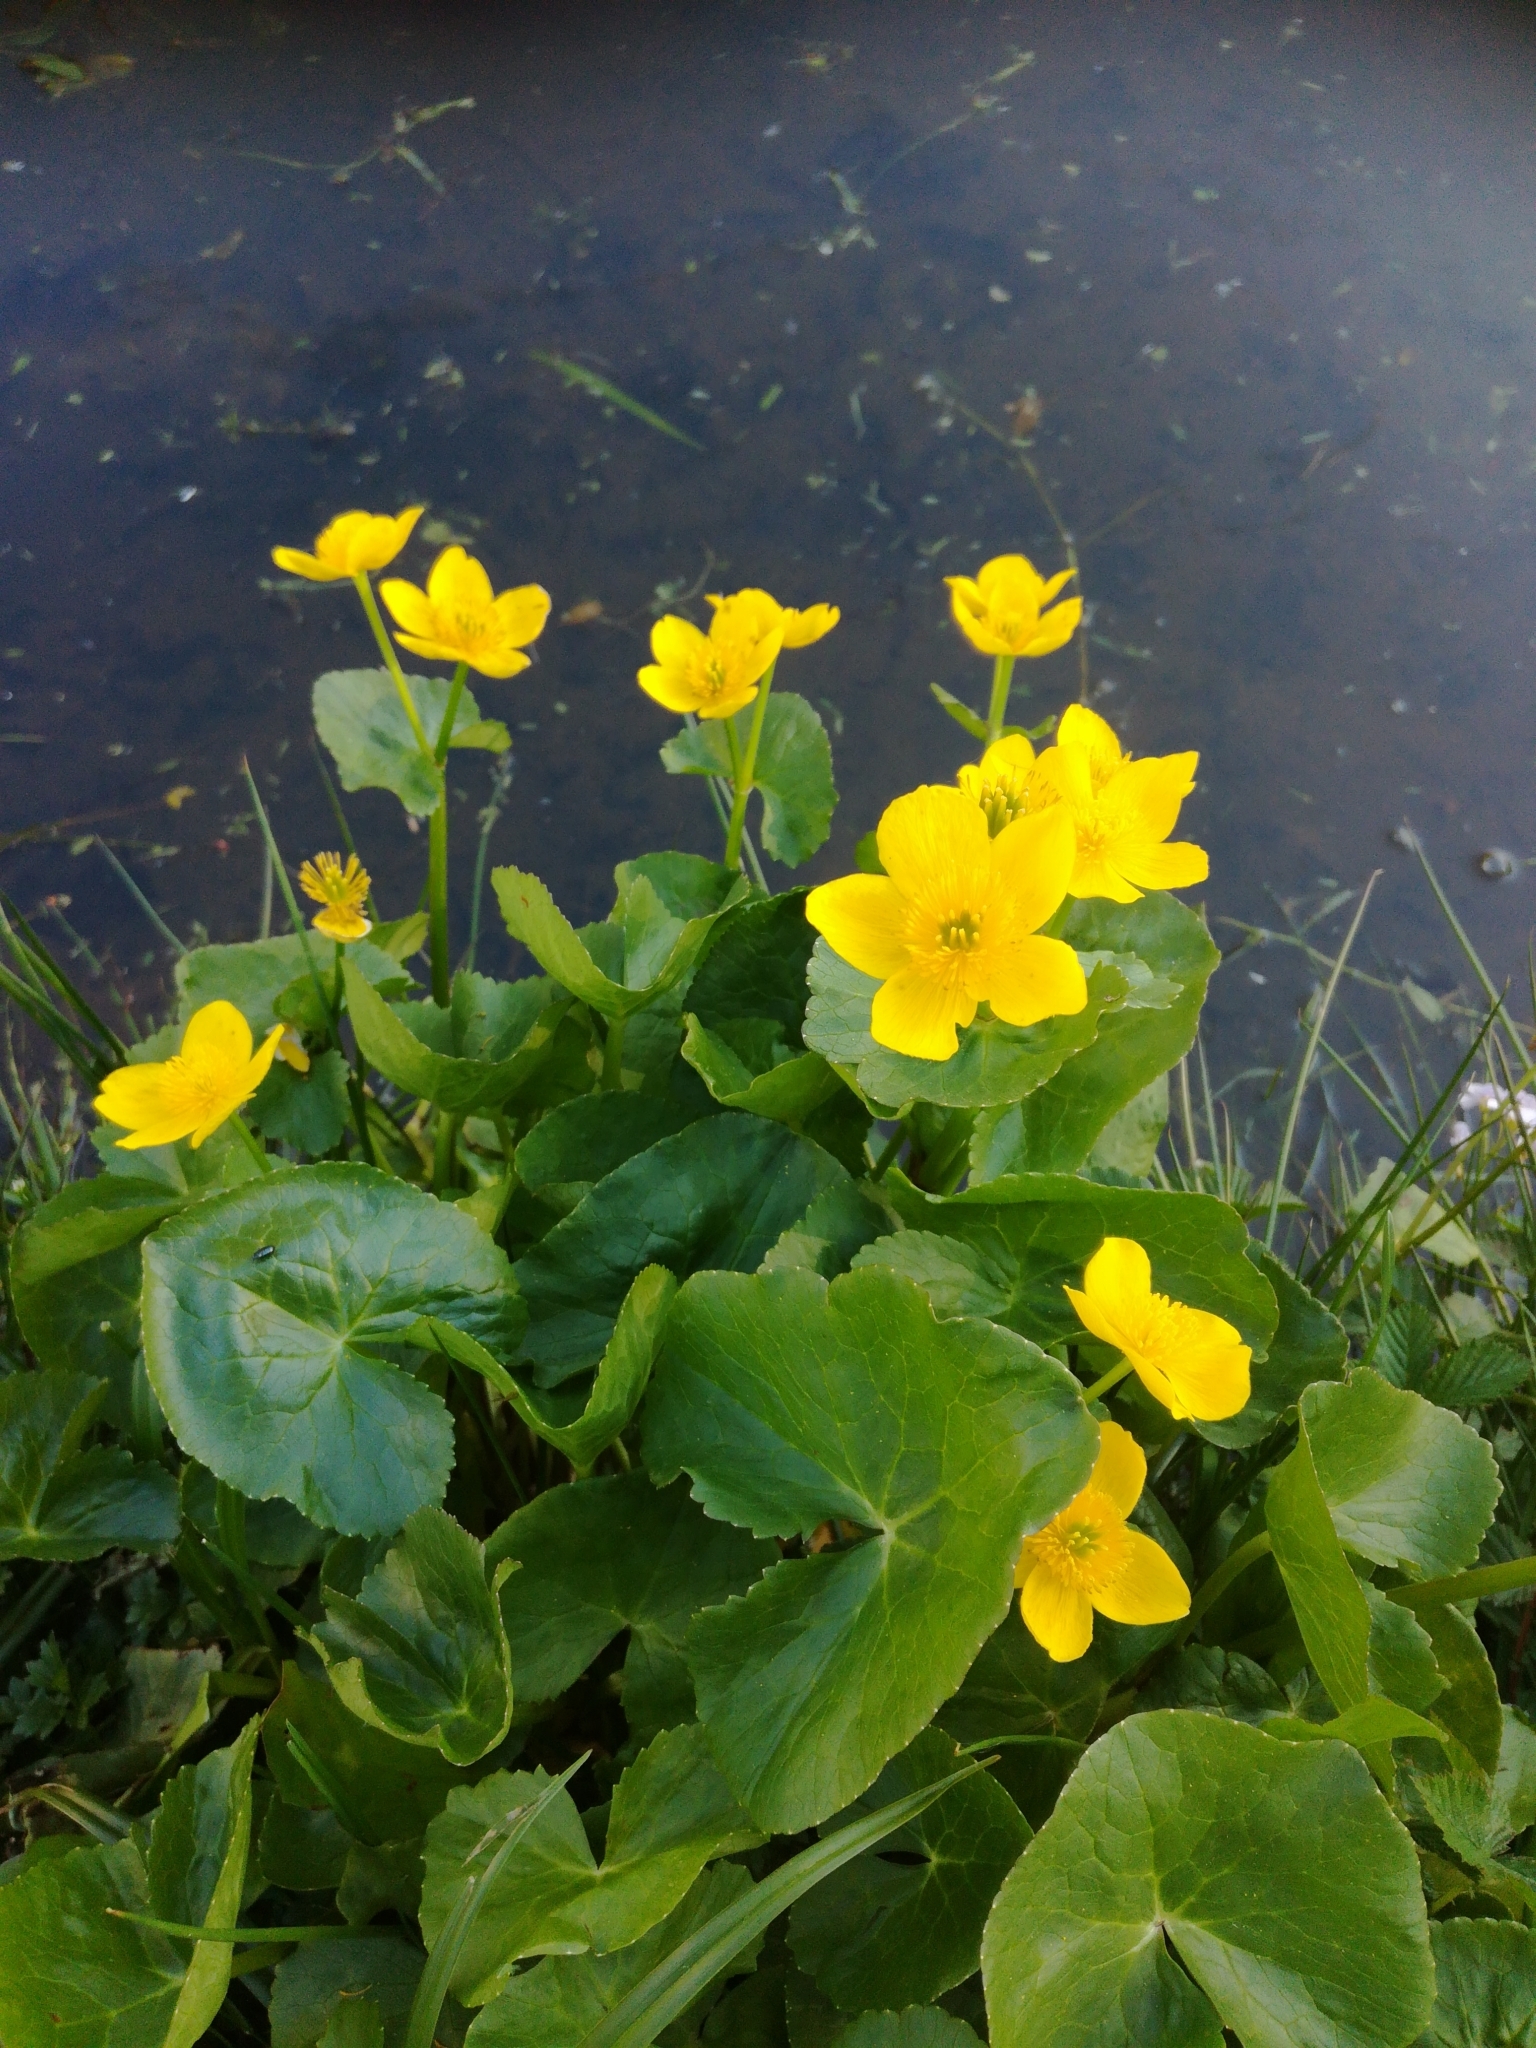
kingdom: Plantae
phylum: Tracheophyta
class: Magnoliopsida
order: Ranunculales
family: Ranunculaceae
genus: Caltha
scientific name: Caltha palustris
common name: Marsh marigold
